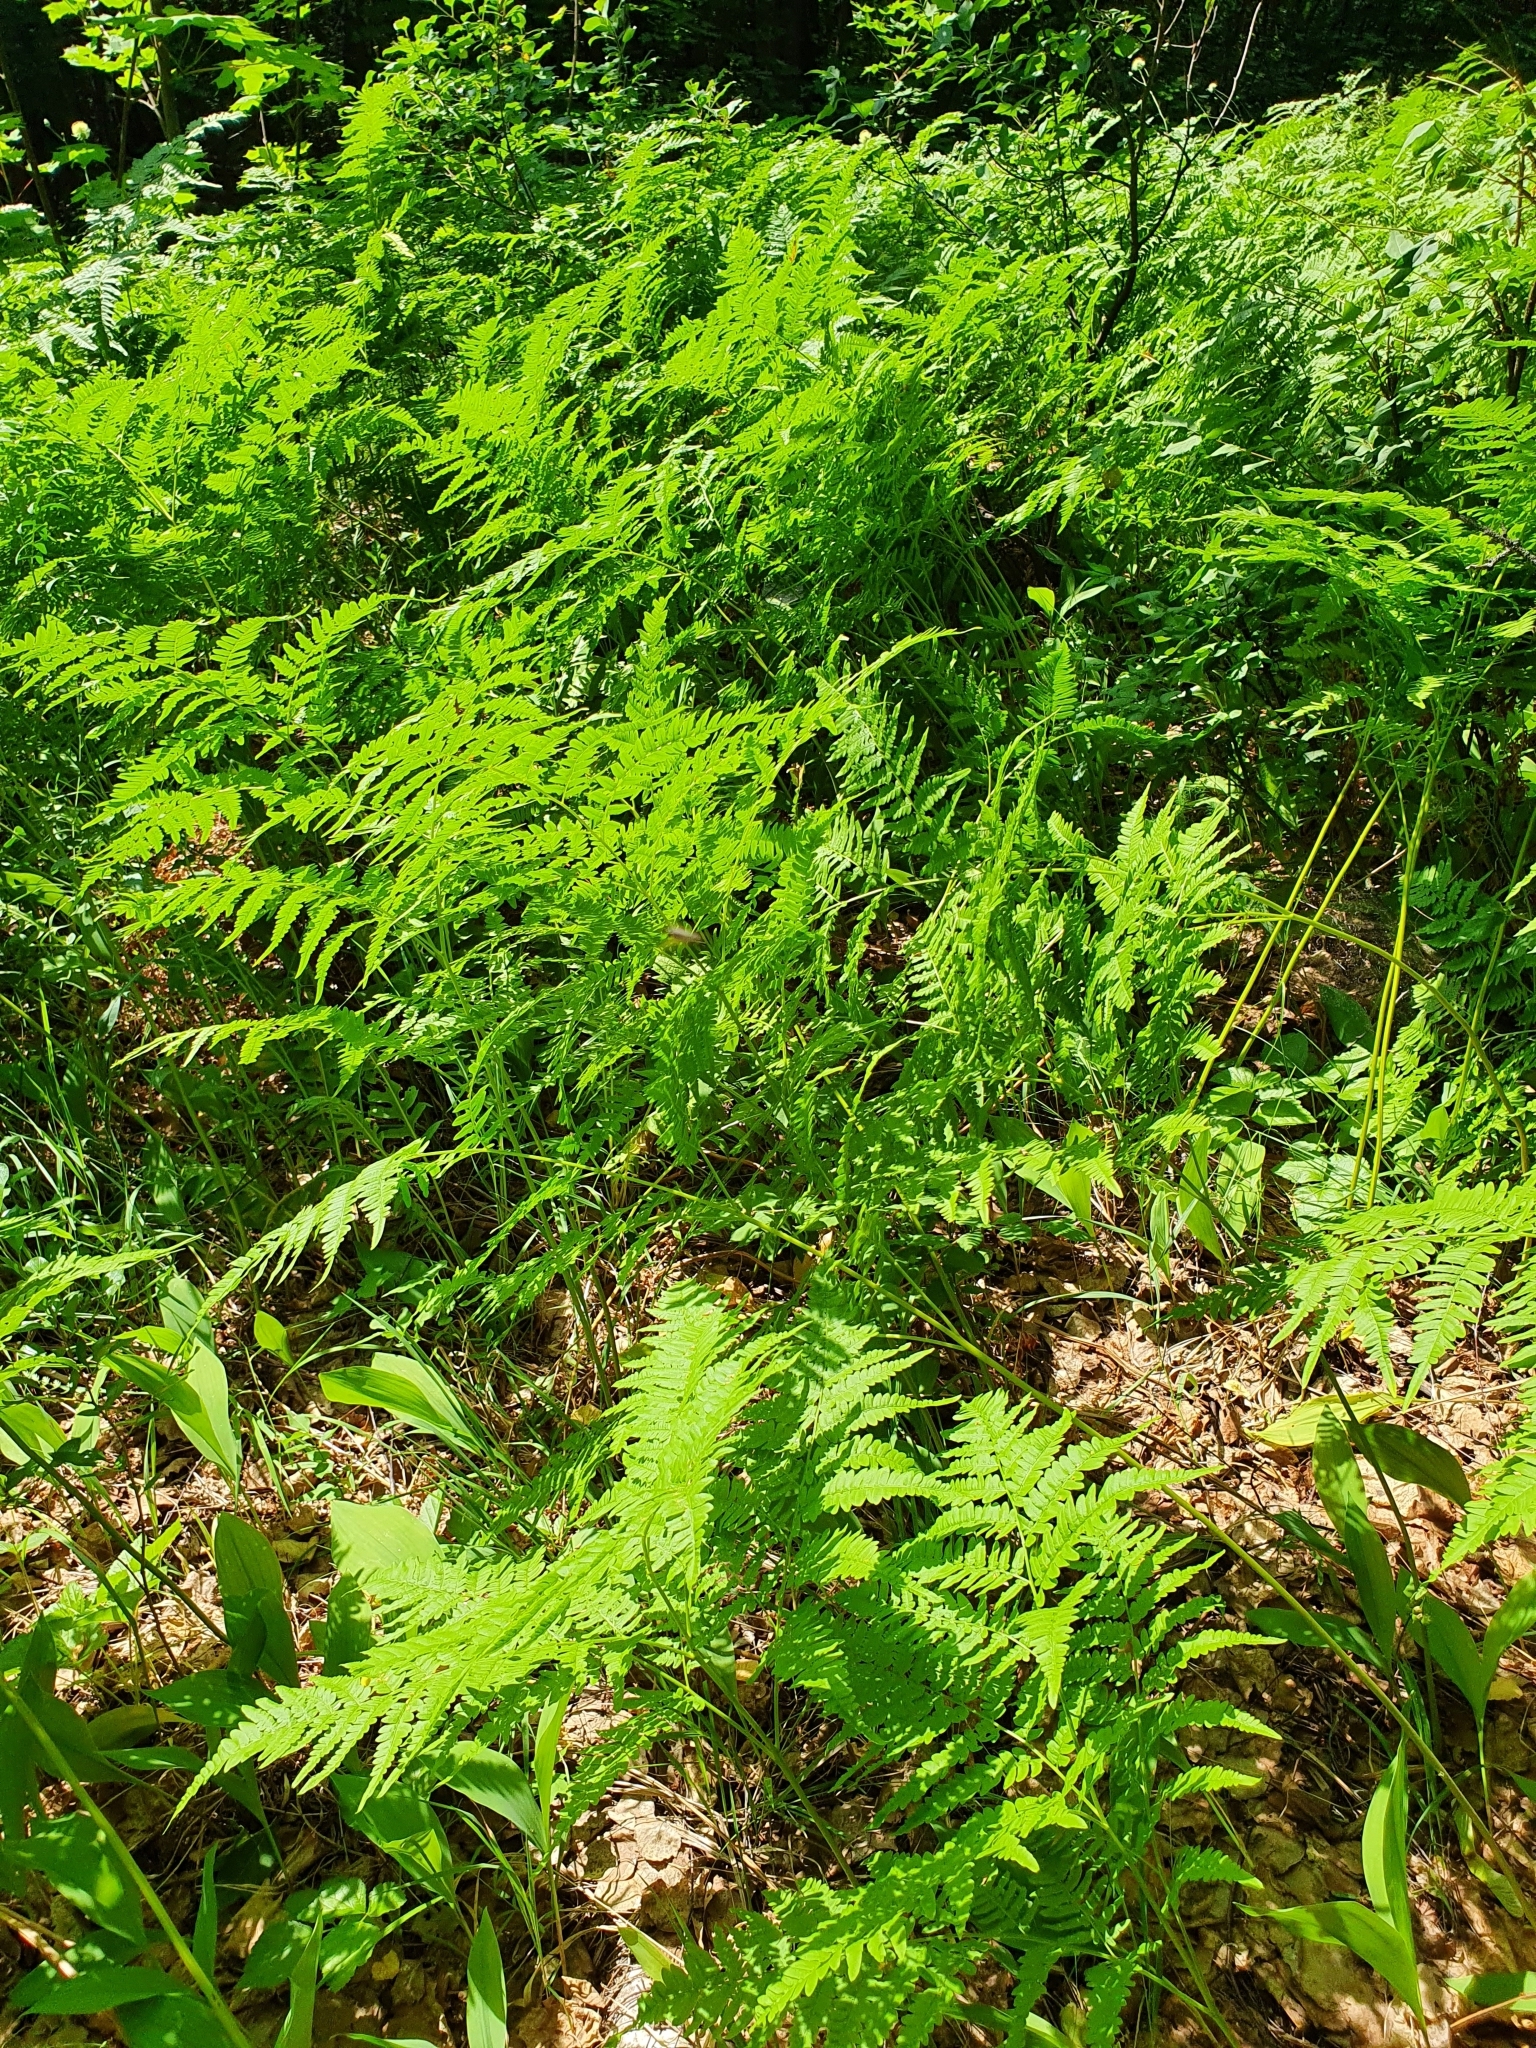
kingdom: Plantae
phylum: Tracheophyta
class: Polypodiopsida
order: Polypodiales
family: Dennstaedtiaceae
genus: Pteridium
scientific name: Pteridium aquilinum
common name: Bracken
